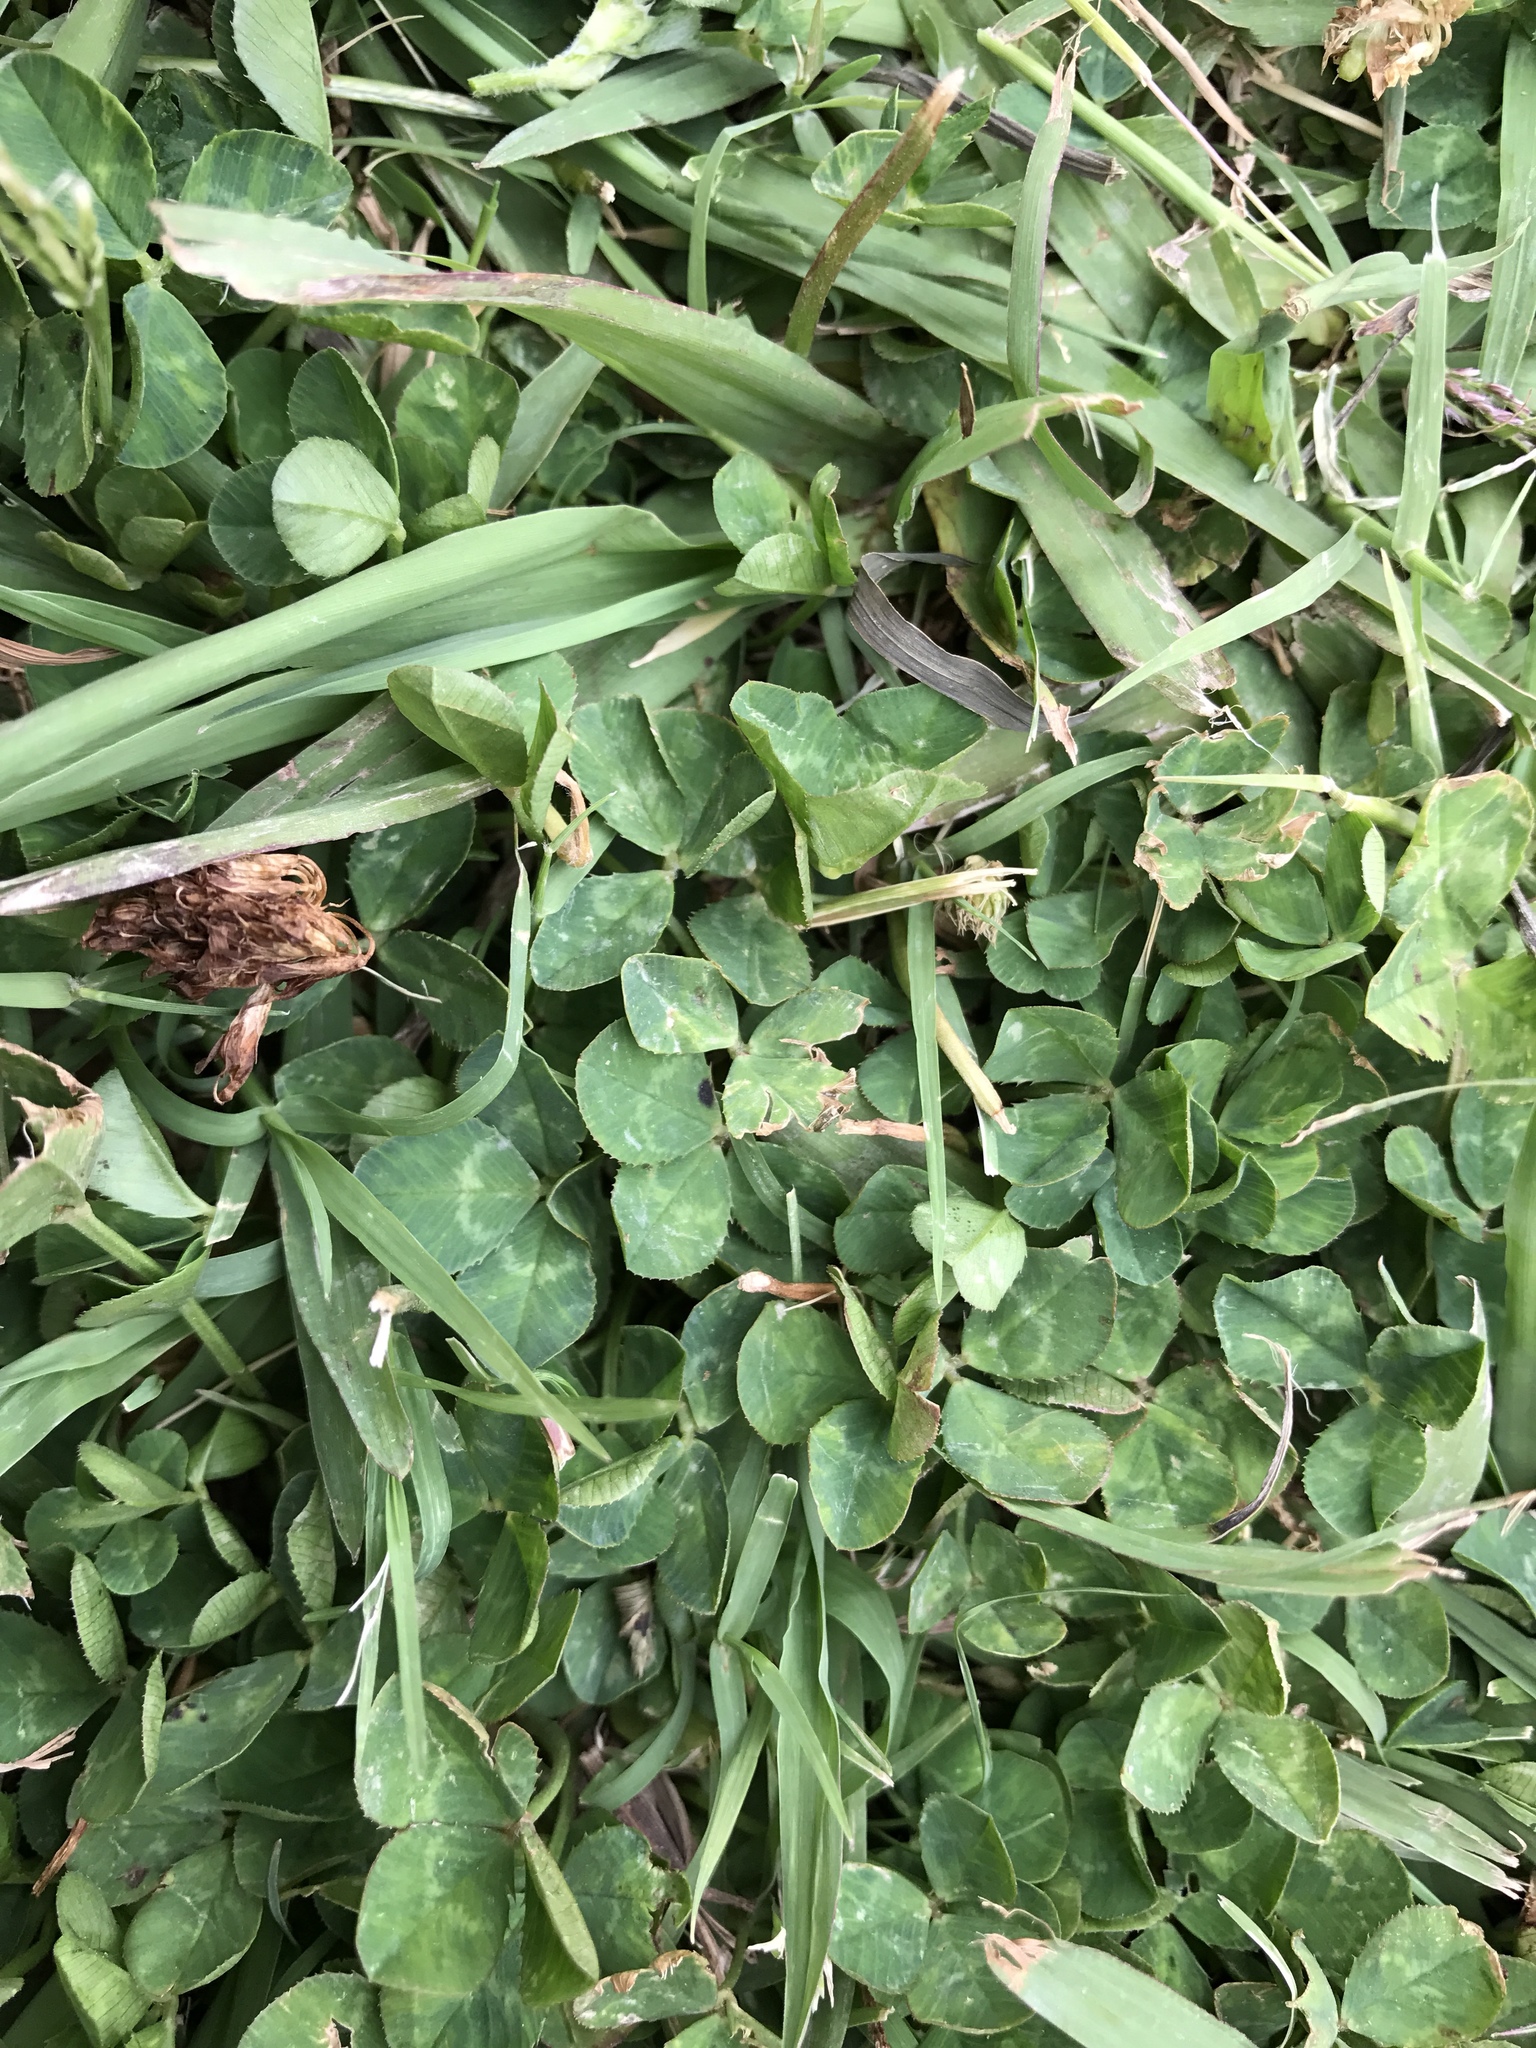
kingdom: Plantae
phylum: Tracheophyta
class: Magnoliopsida
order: Fabales
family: Fabaceae
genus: Trifolium
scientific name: Trifolium repens
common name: White clover
